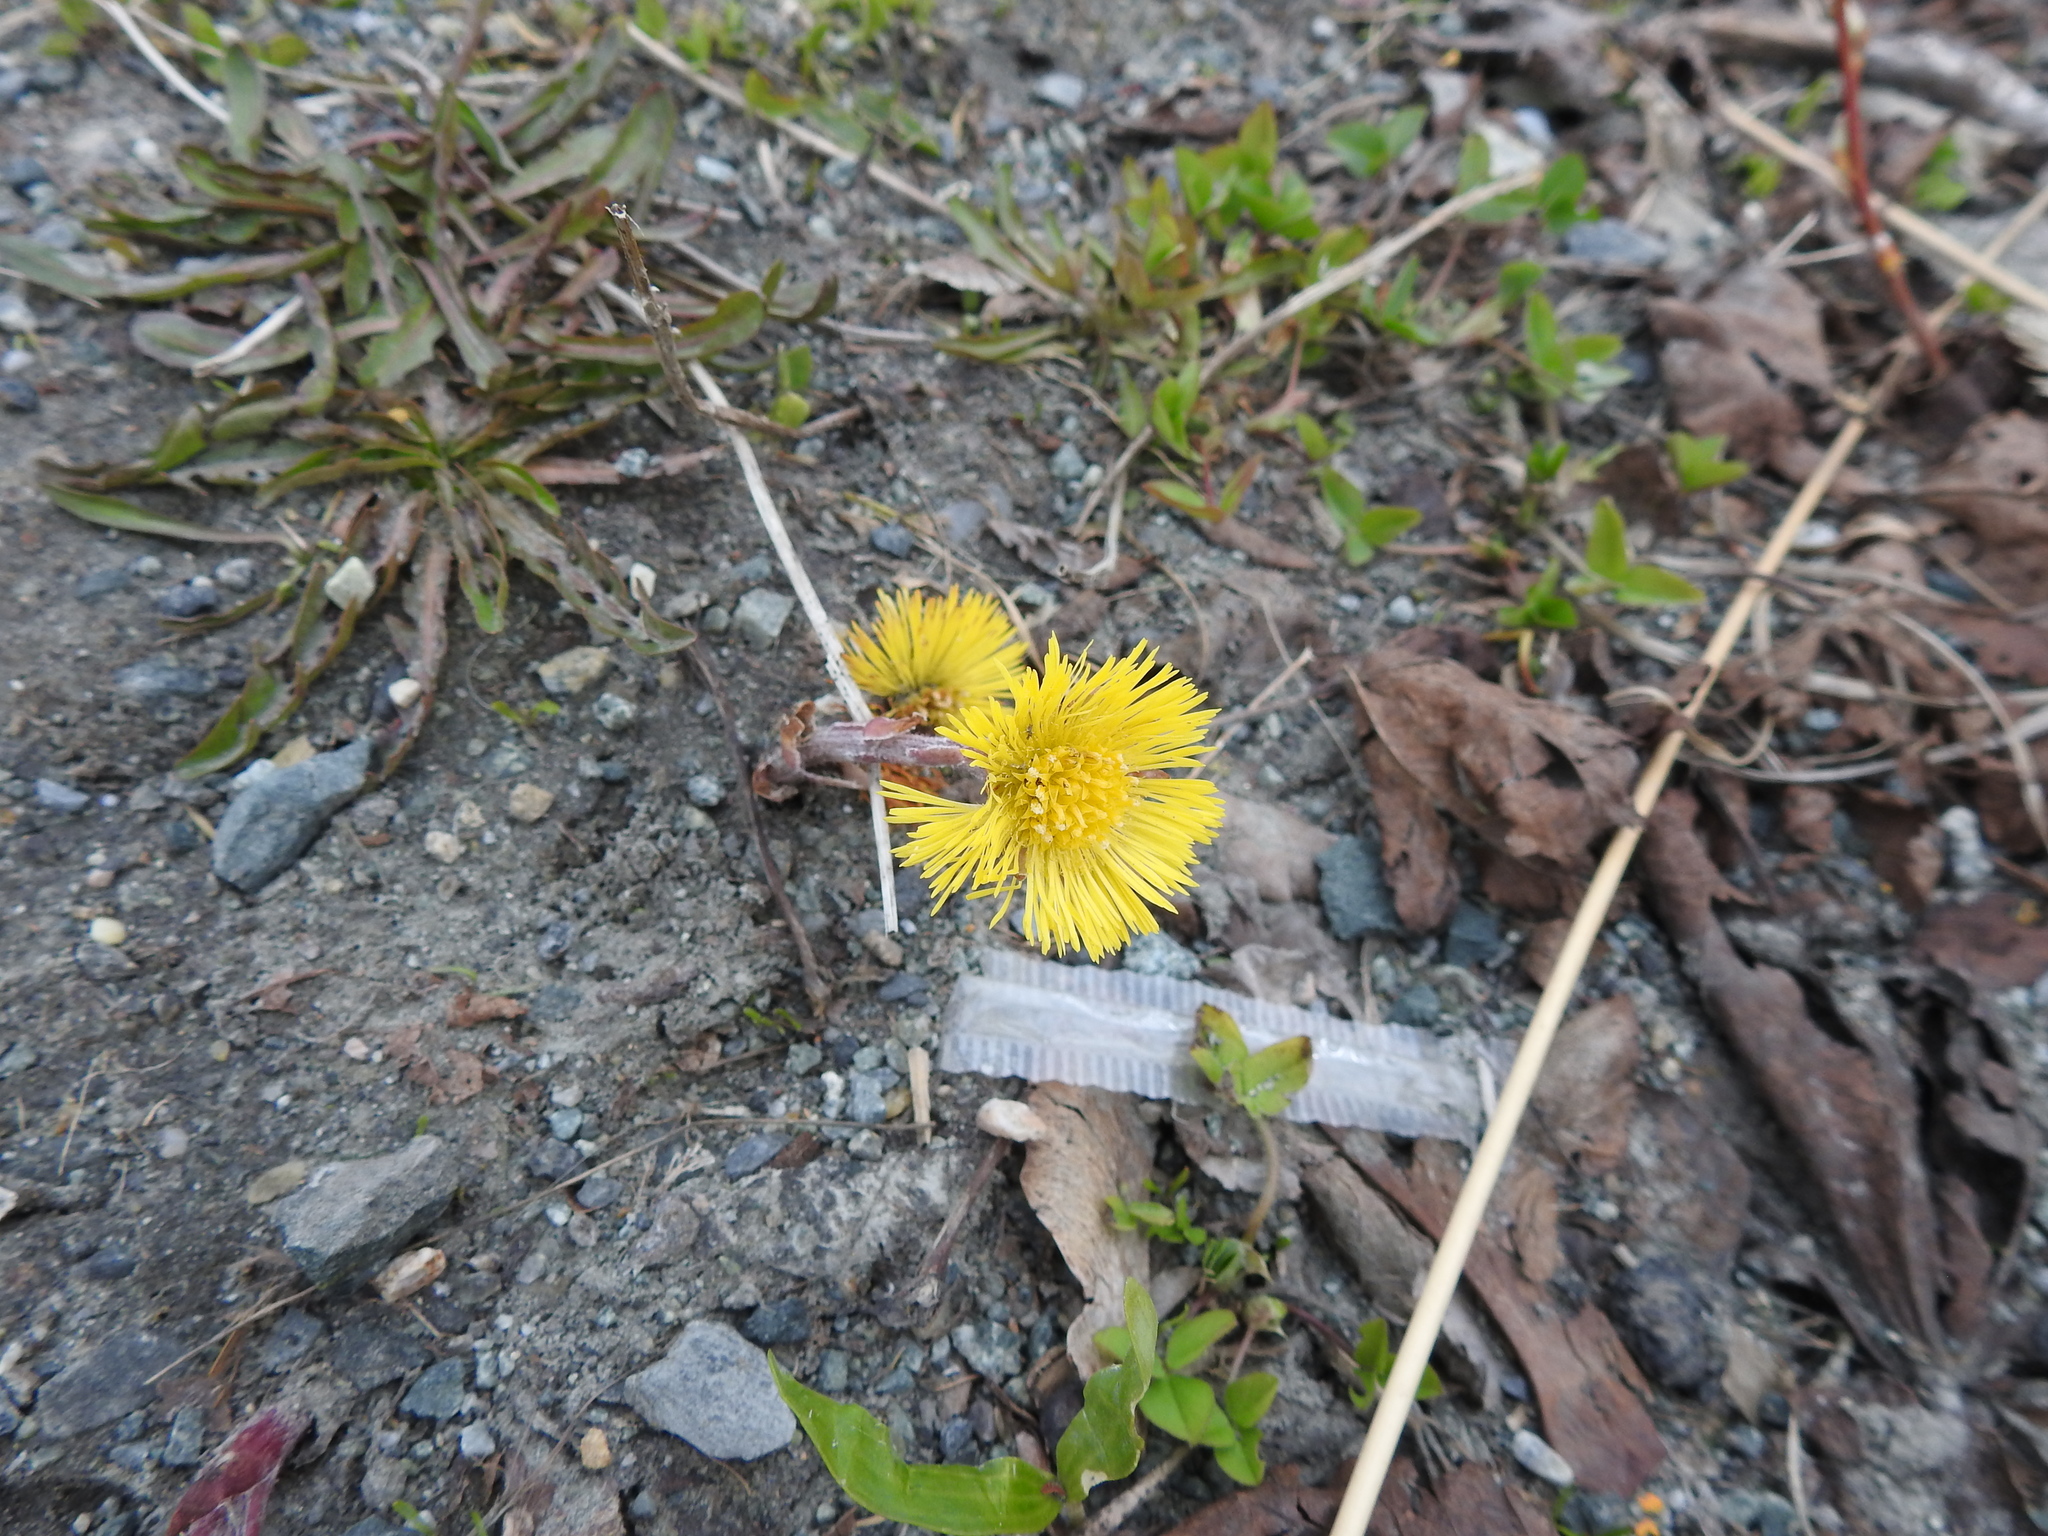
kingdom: Plantae
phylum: Tracheophyta
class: Magnoliopsida
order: Asterales
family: Asteraceae
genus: Tussilago
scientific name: Tussilago farfara
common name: Coltsfoot
